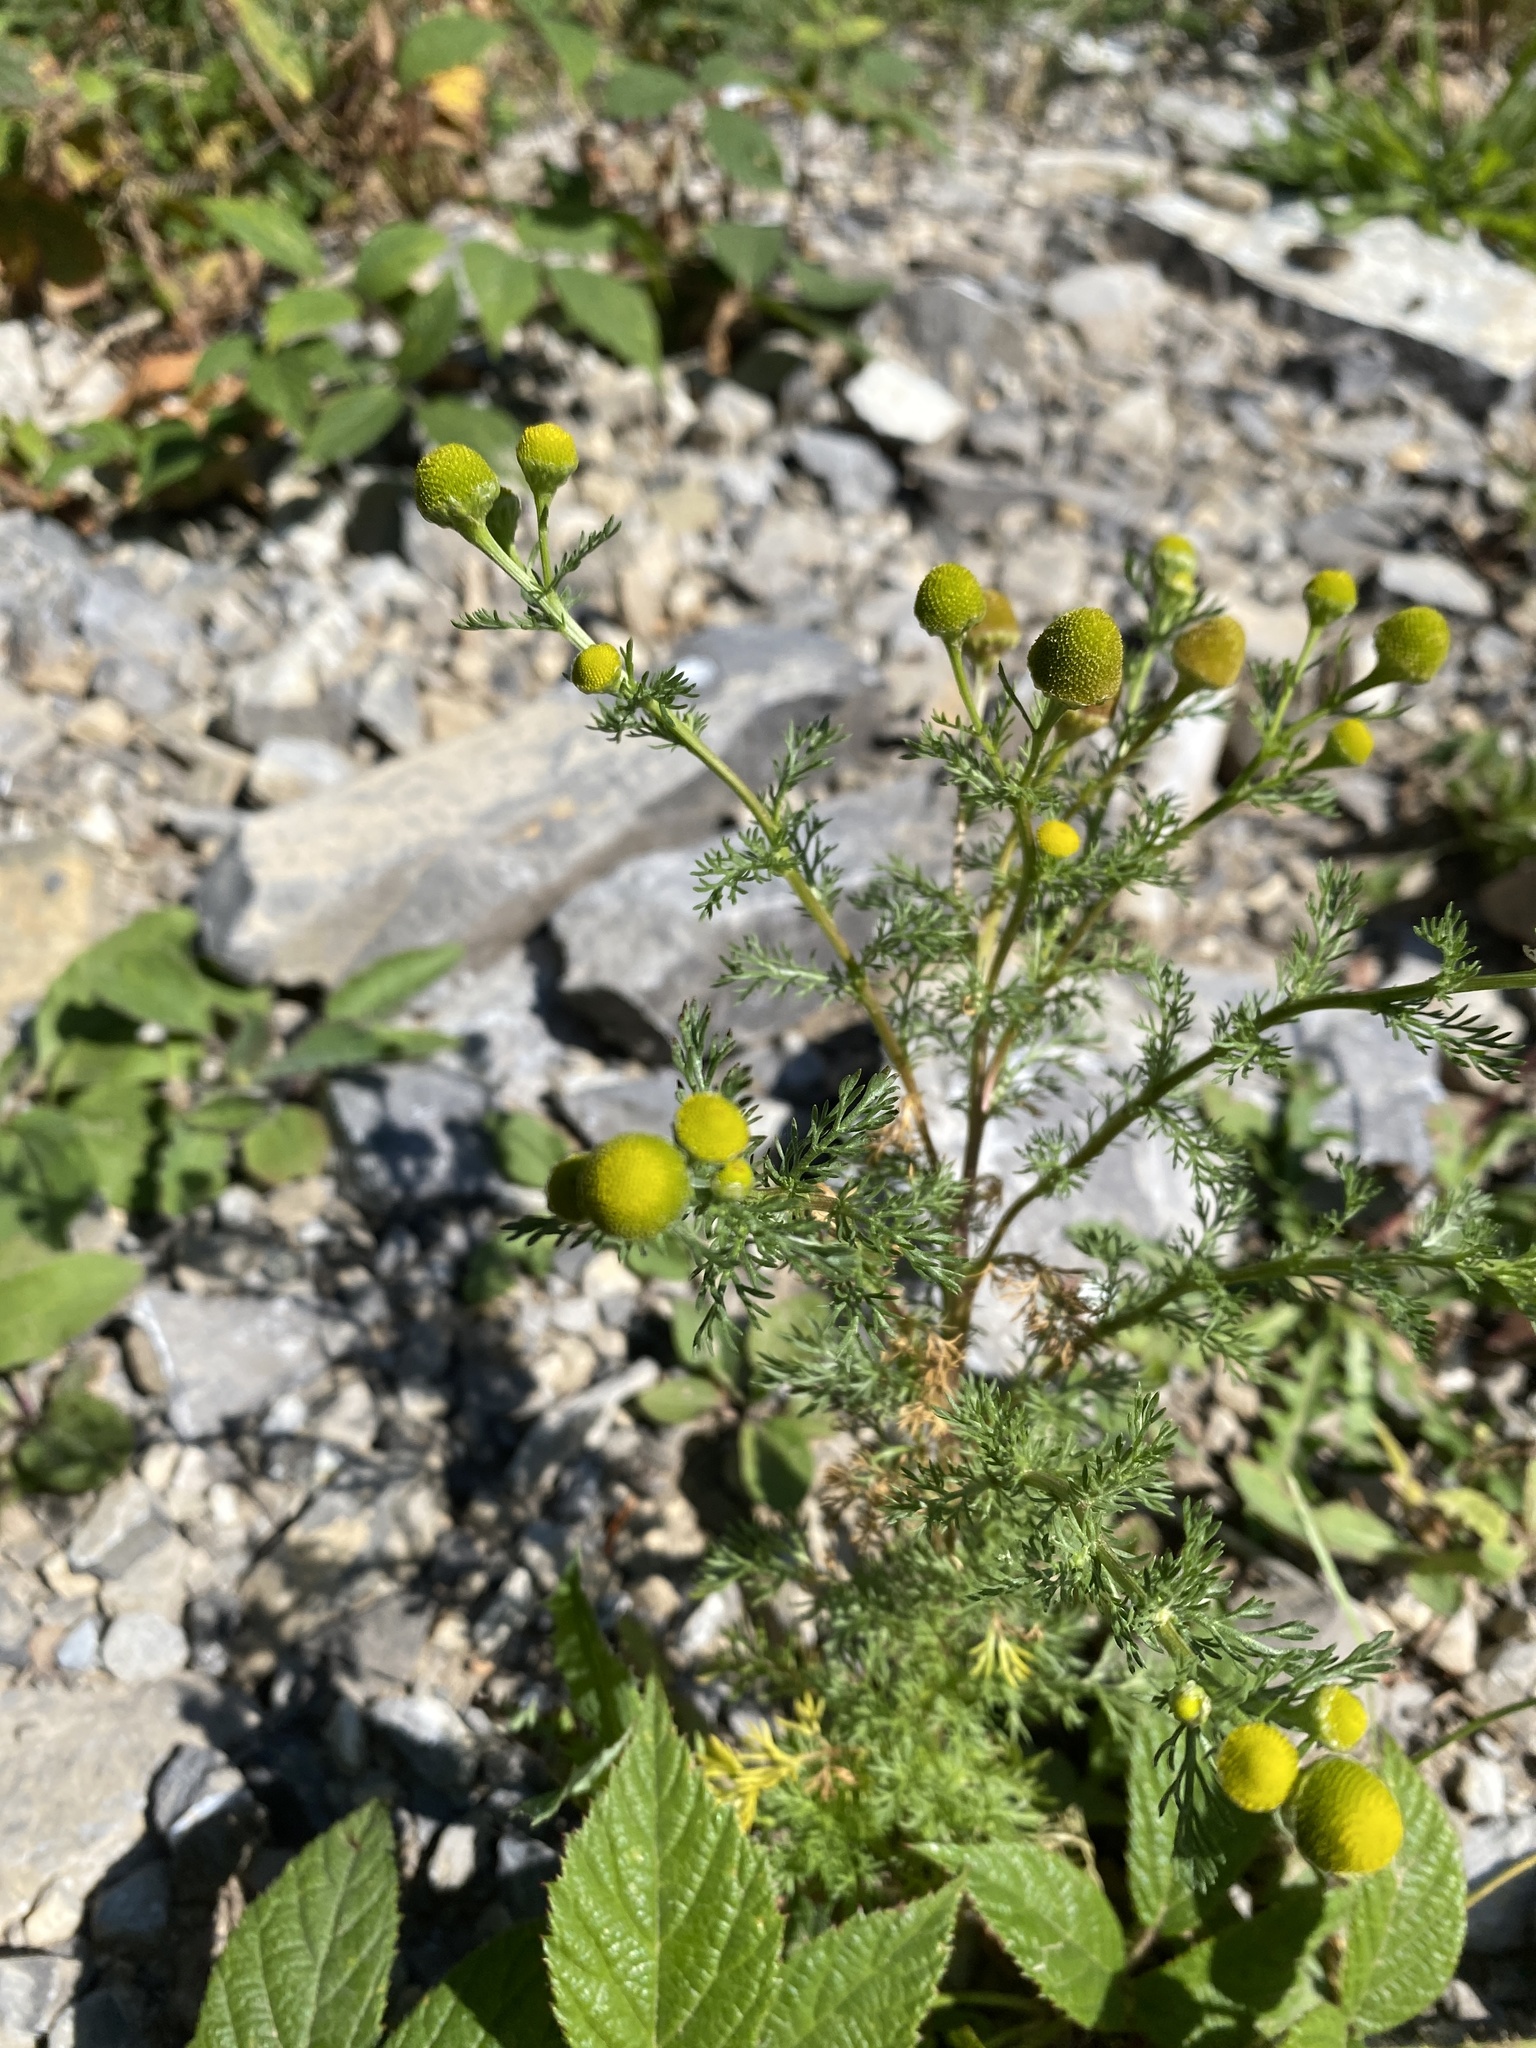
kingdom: Plantae
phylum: Tracheophyta
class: Magnoliopsida
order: Asterales
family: Asteraceae
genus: Matricaria
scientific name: Matricaria discoidea
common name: Disc mayweed
